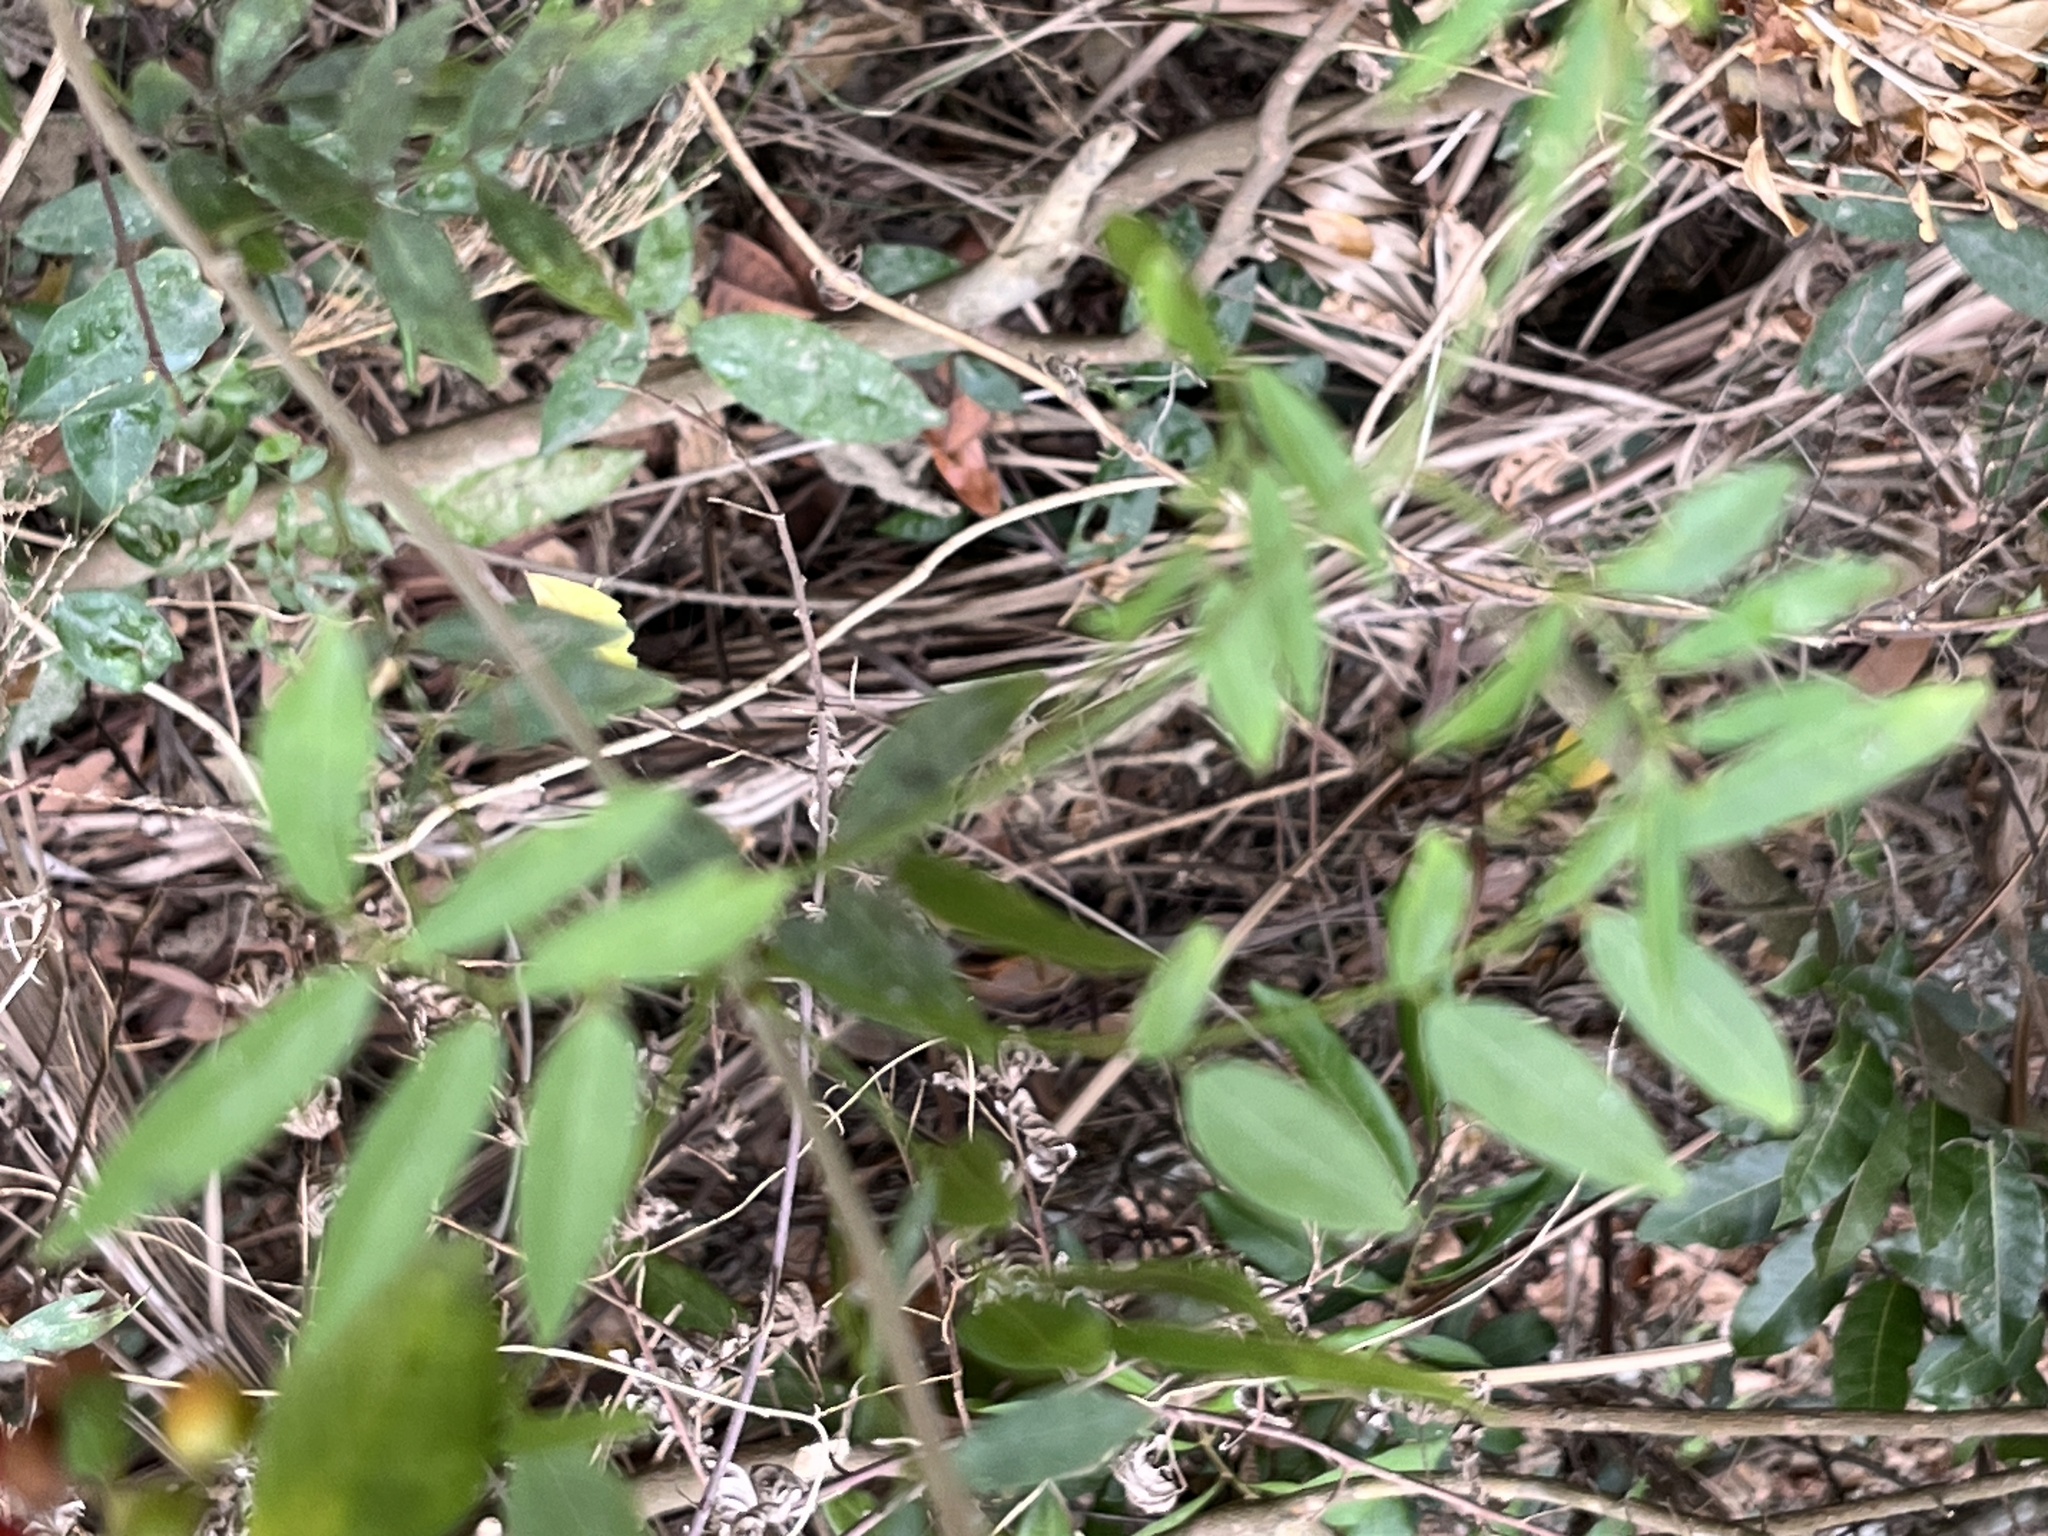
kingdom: Plantae
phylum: Tracheophyta
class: Magnoliopsida
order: Rosales
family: Moraceae
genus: Maclura
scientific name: Maclura cochinchinensis
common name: Cockspurthorn
